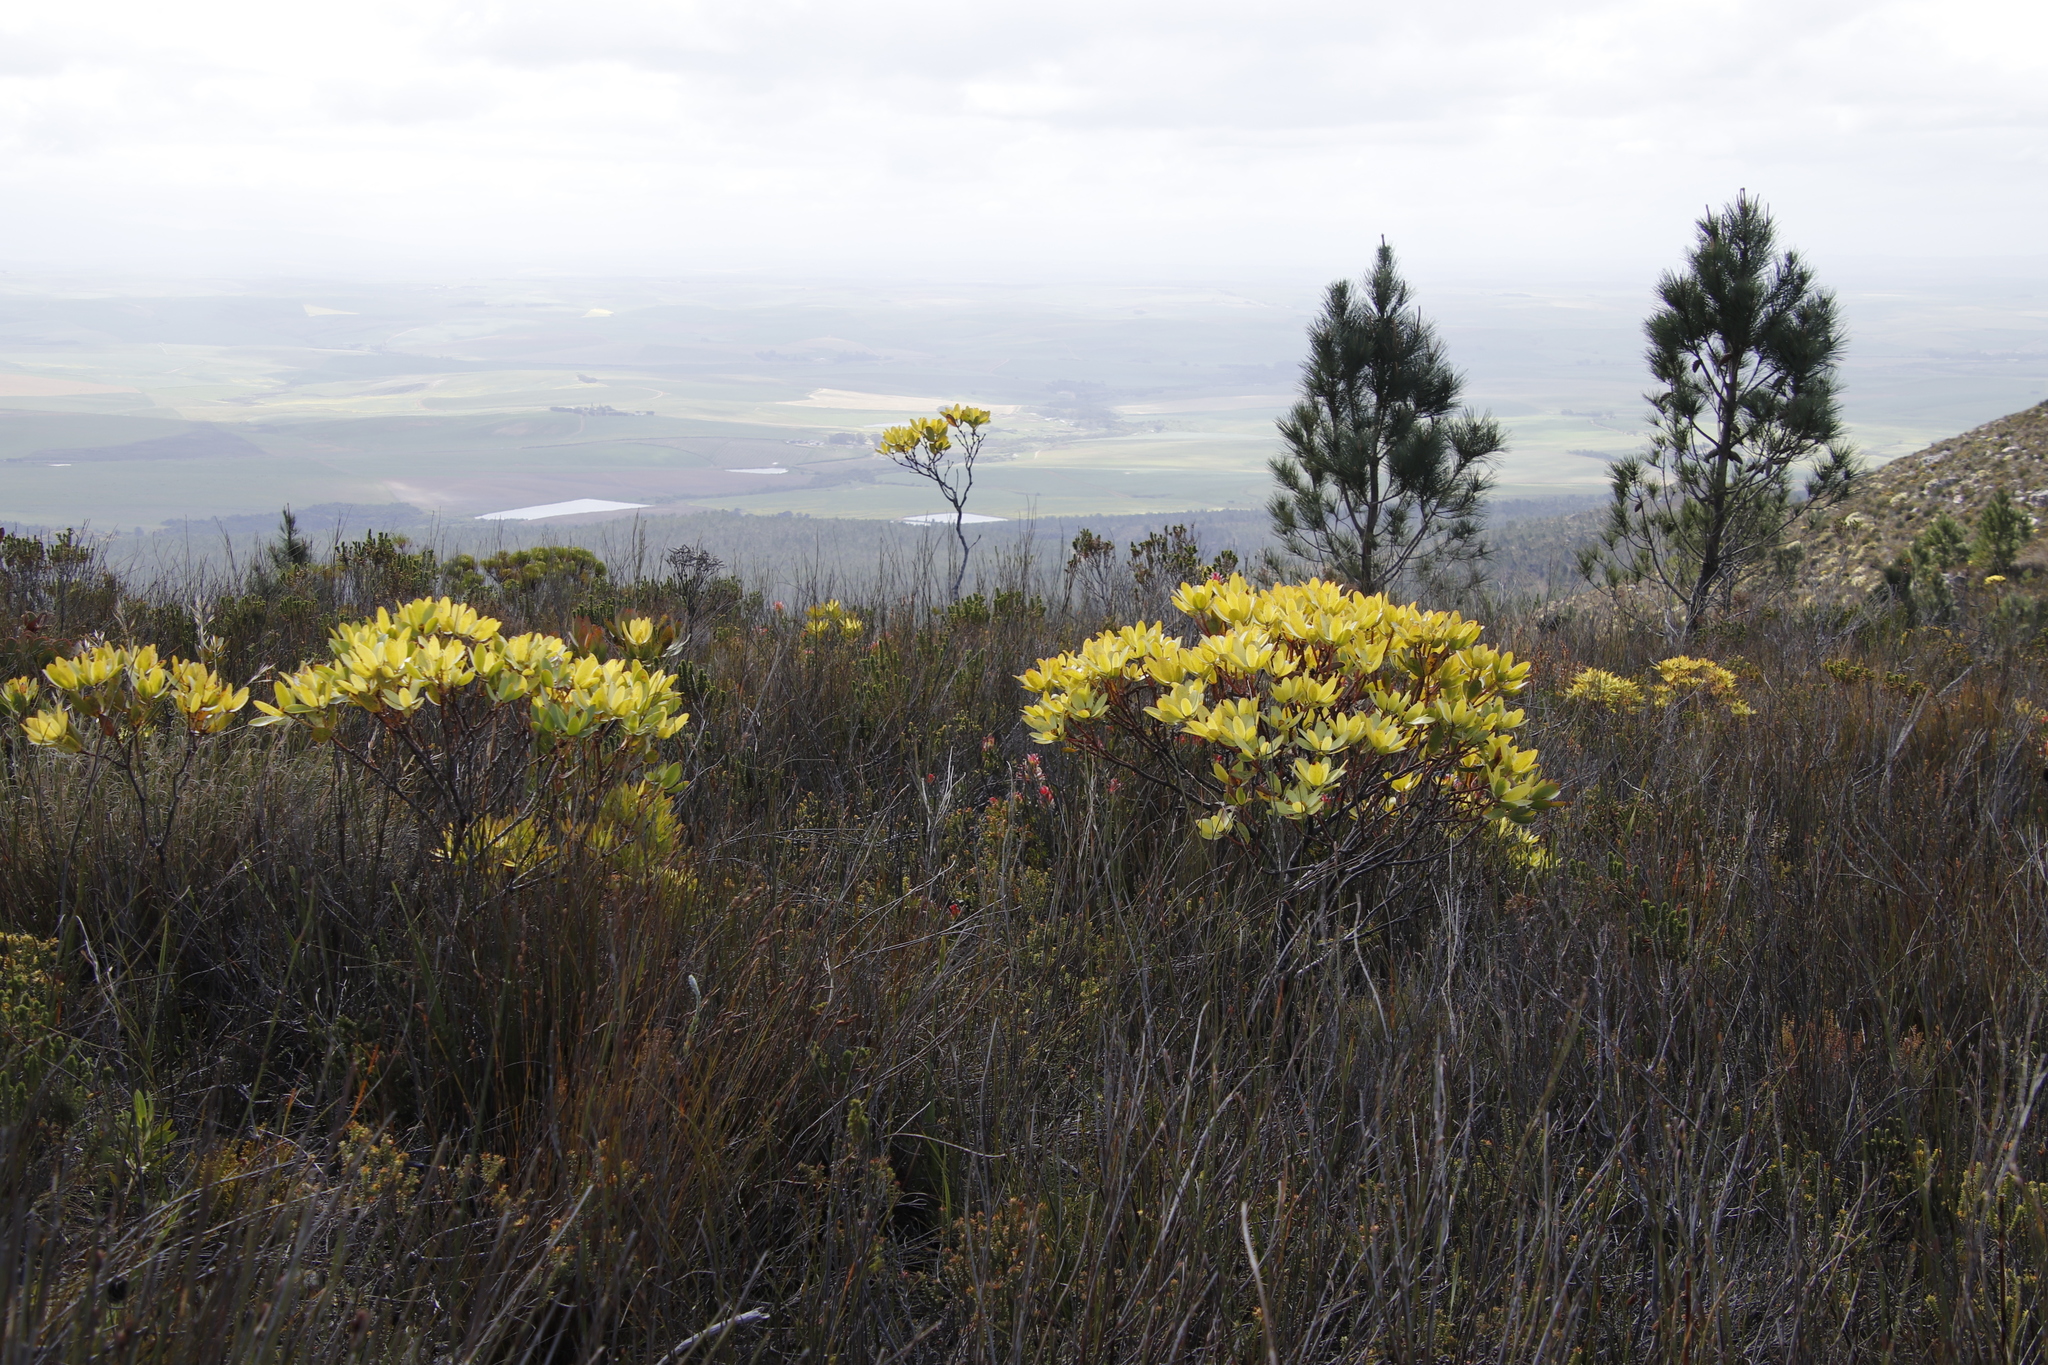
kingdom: Plantae
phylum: Tracheophyta
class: Magnoliopsida
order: Proteales
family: Proteaceae
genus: Leucadendron
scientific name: Leucadendron gandogeri
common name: Broad-leaf conebush
